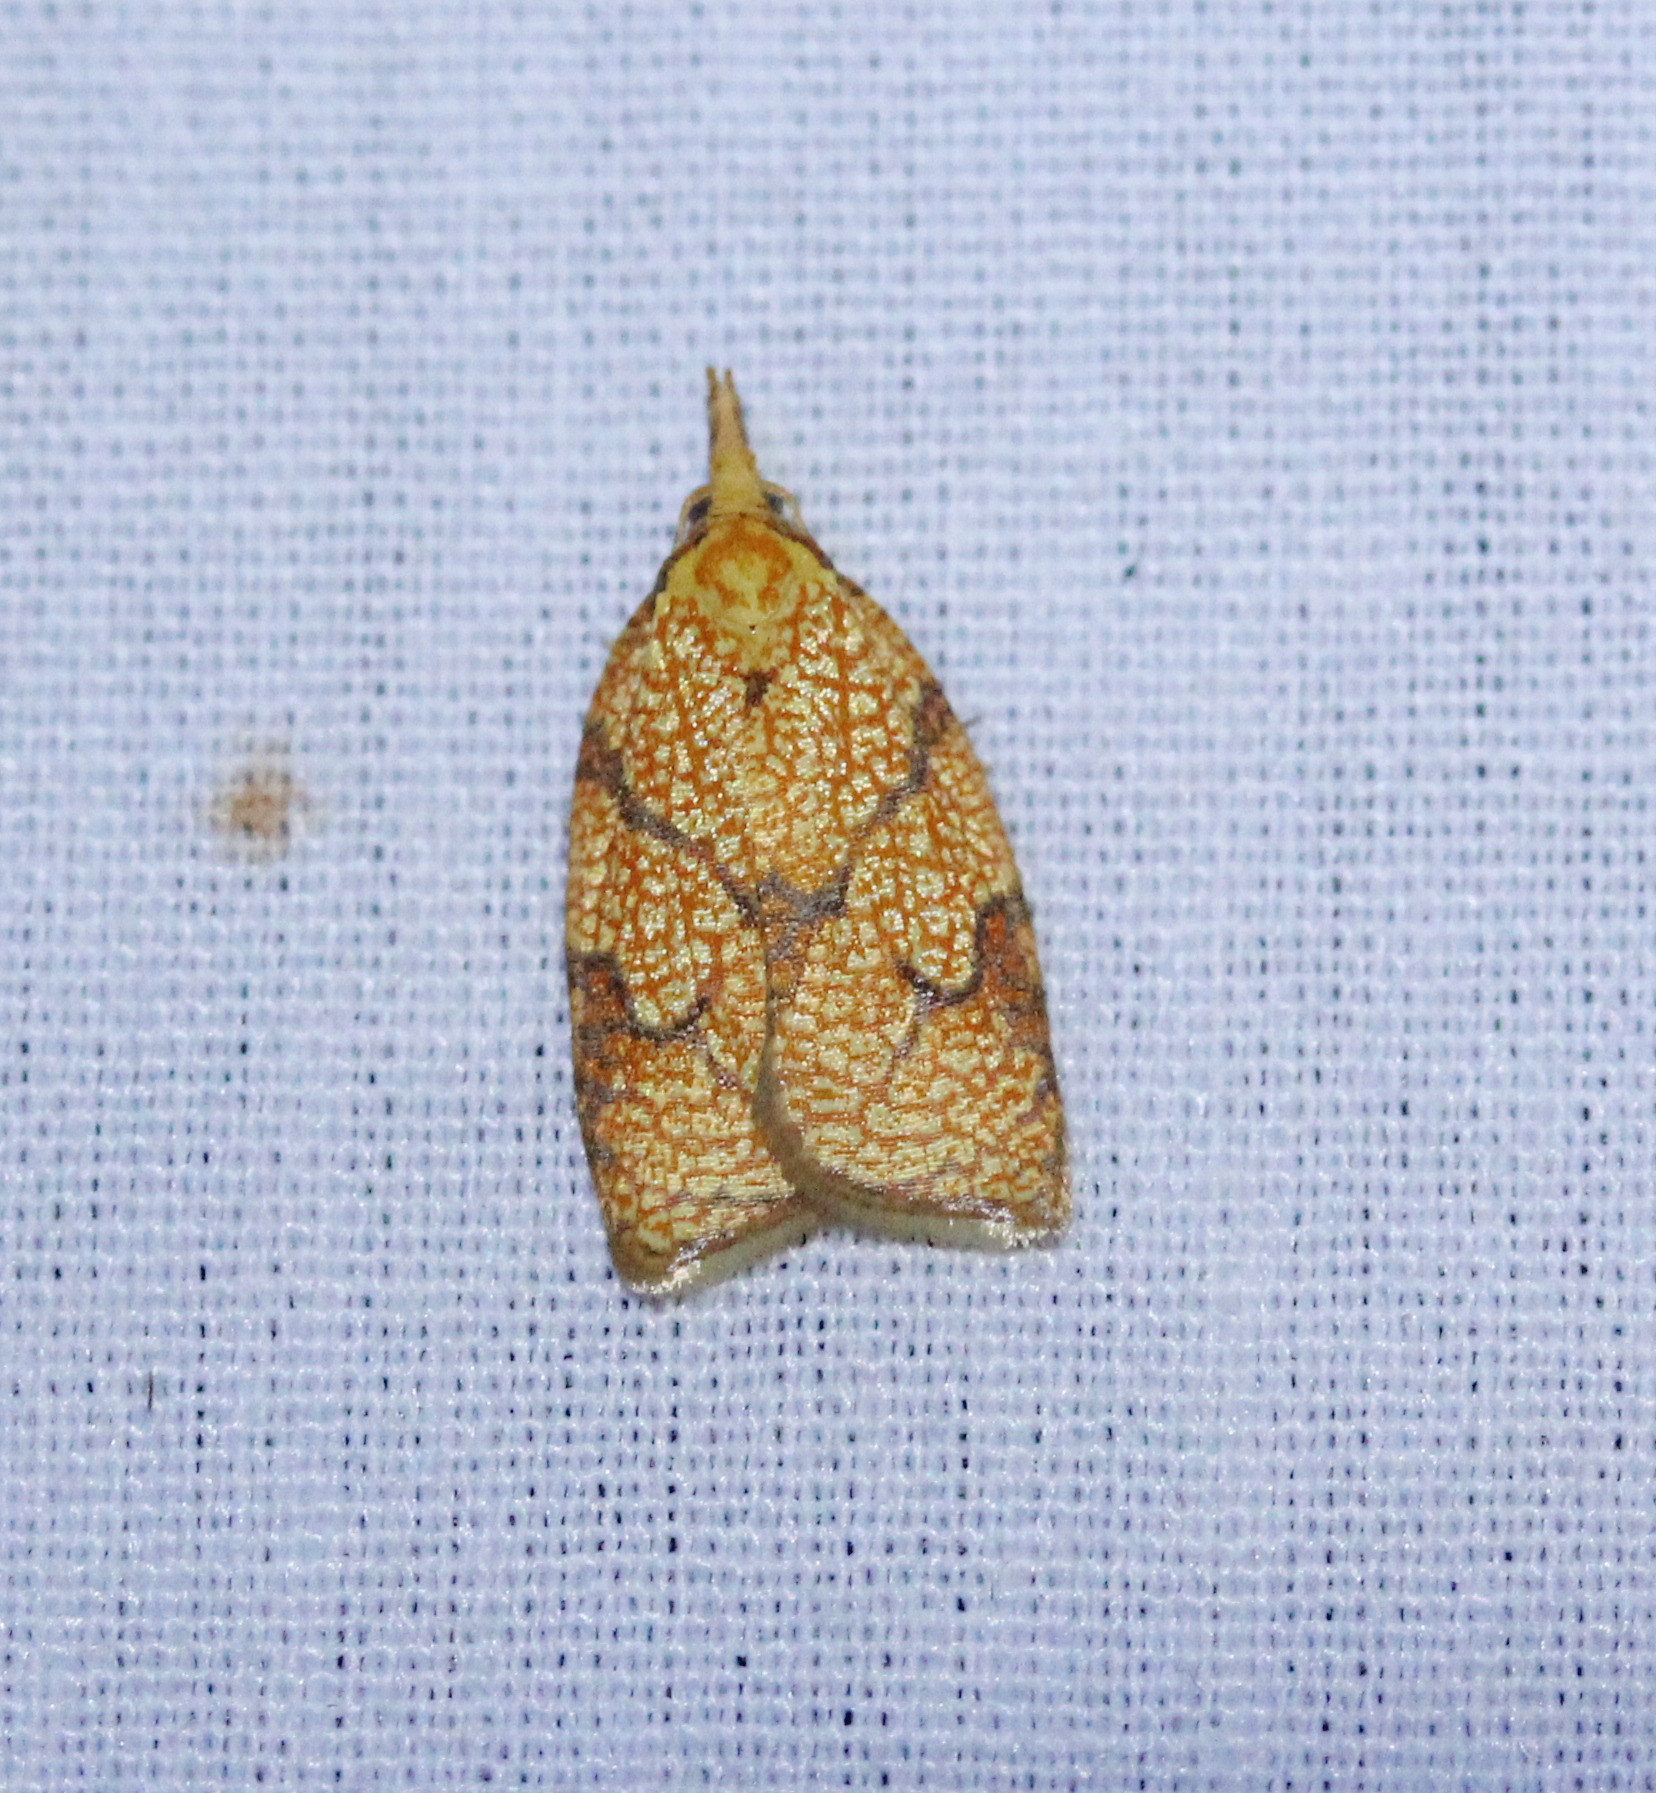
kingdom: Animalia
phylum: Arthropoda
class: Insecta
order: Lepidoptera
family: Tortricidae
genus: Cenopis
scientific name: Cenopis reticulatana
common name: Reticulated fruitworm moth
